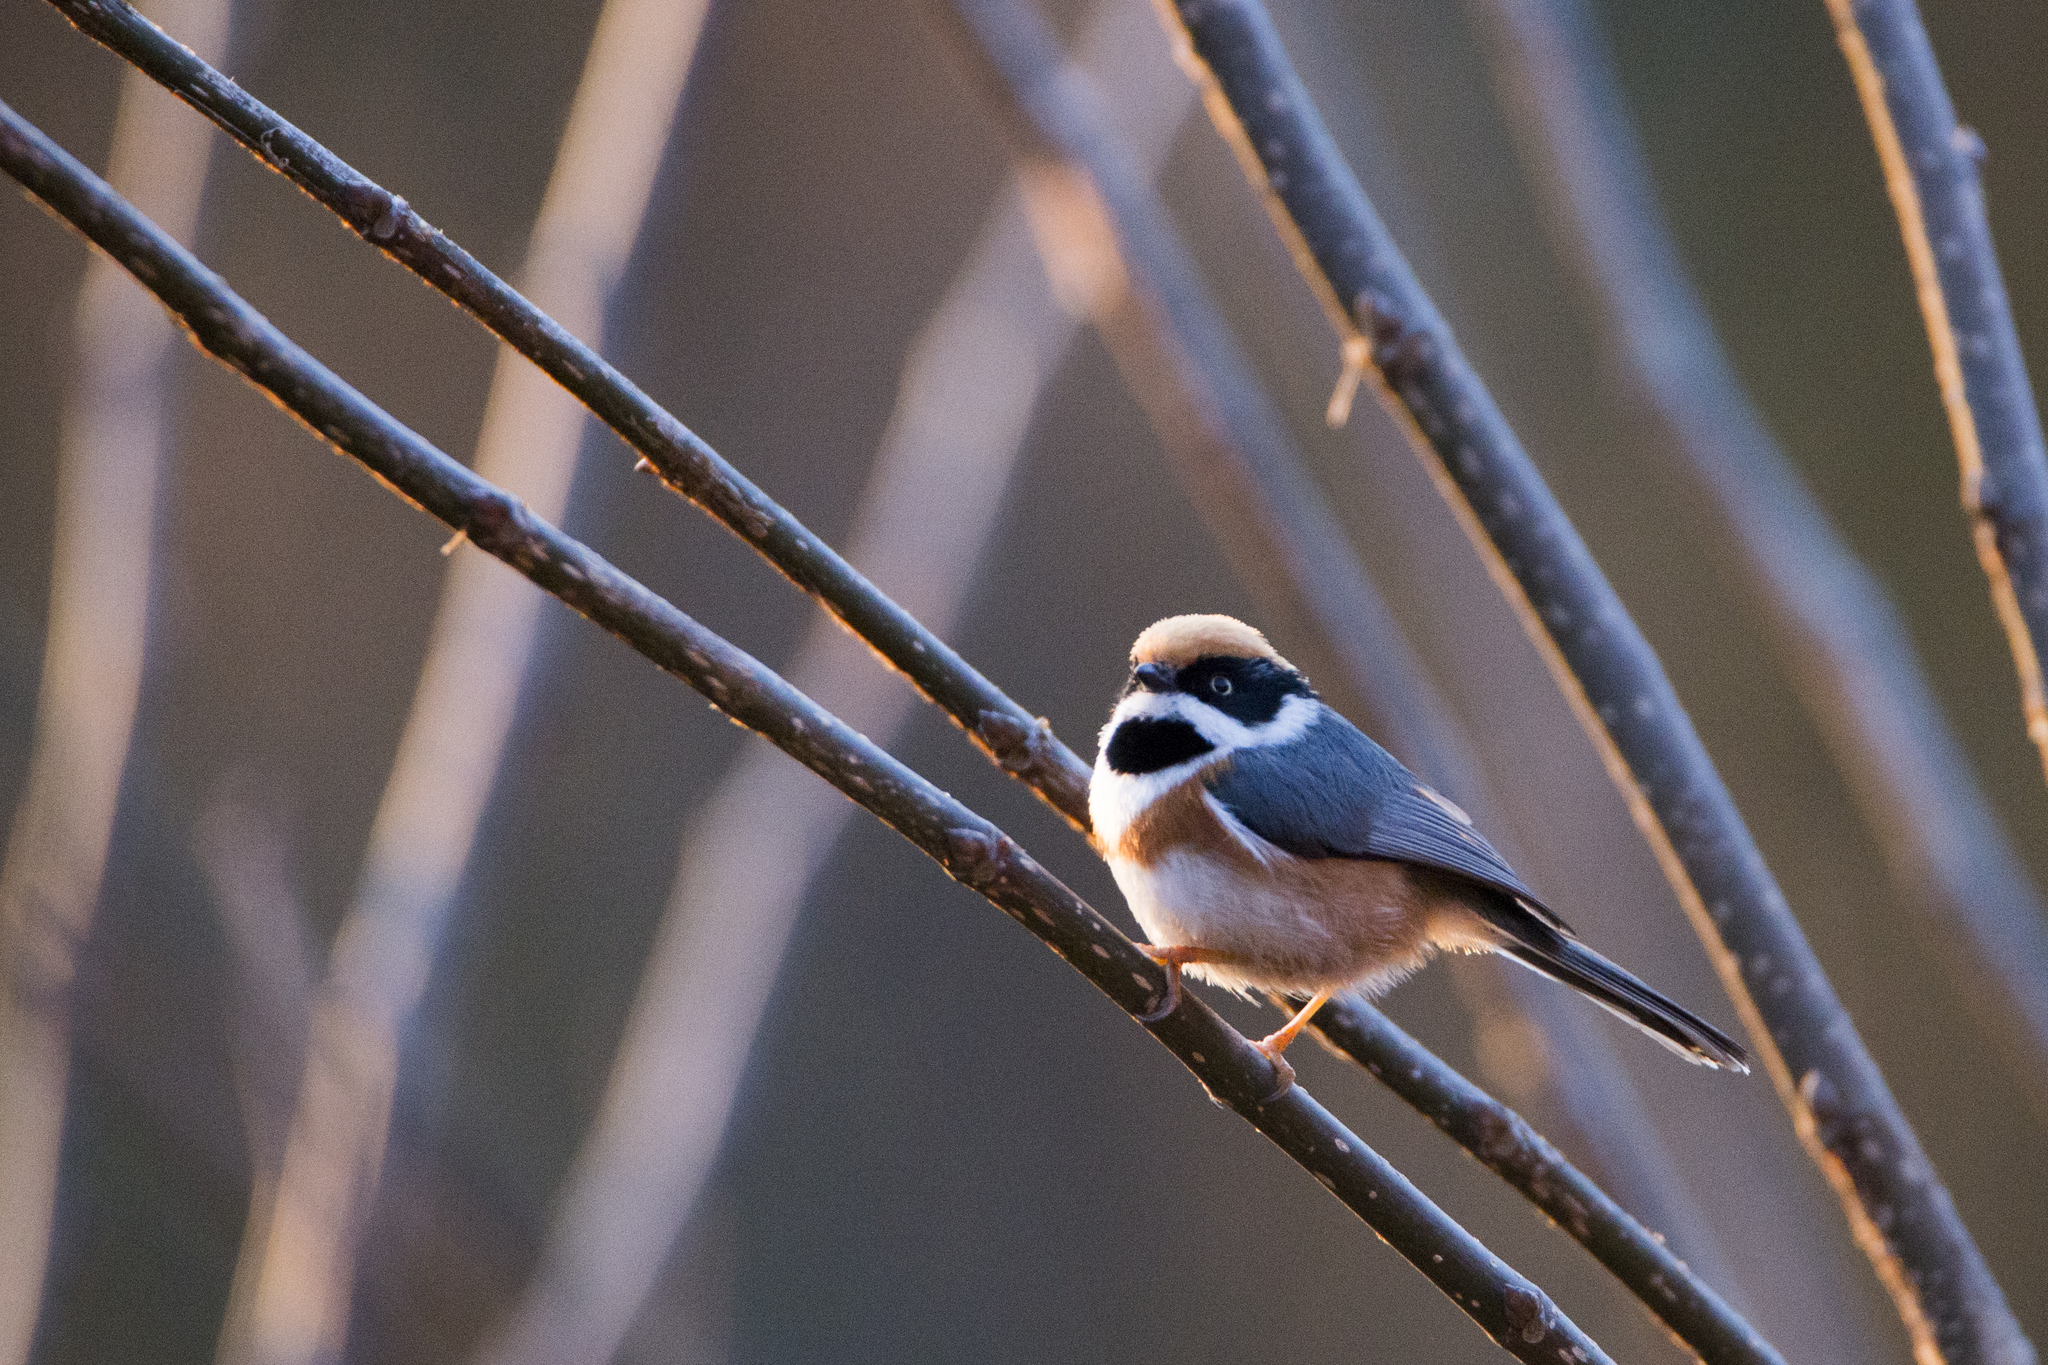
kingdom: Animalia
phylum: Chordata
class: Aves
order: Passeriformes
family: Aegithalidae
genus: Aegithalos
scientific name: Aegithalos concinnus
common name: Black-throated bushtit
